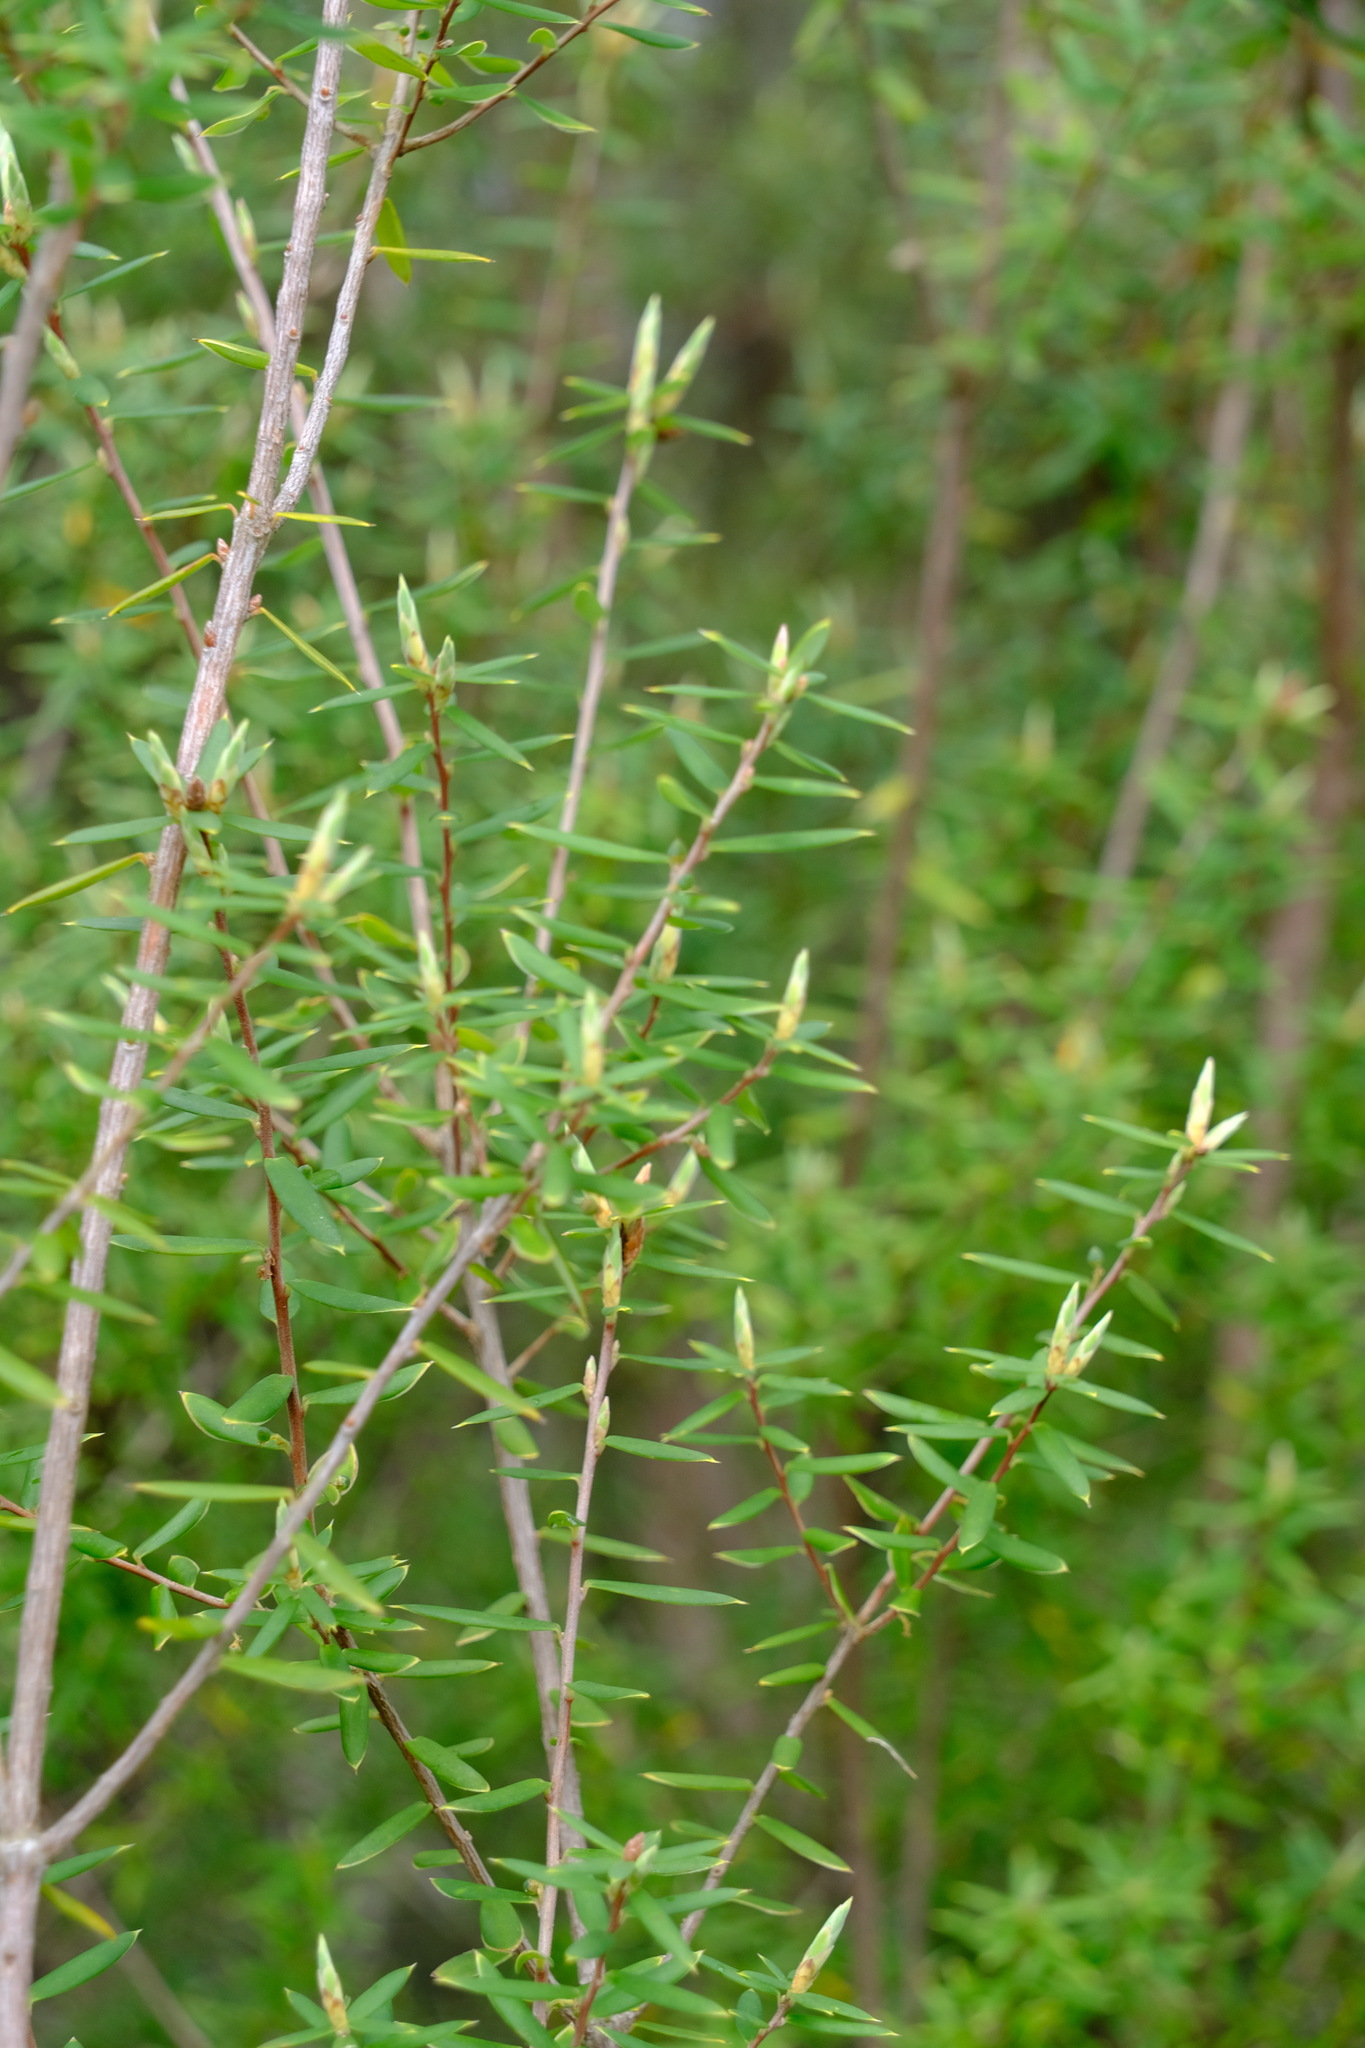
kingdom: Plantae
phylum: Tracheophyta
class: Magnoliopsida
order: Ericales
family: Ericaceae
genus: Monotoca
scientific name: Monotoca scoparia
